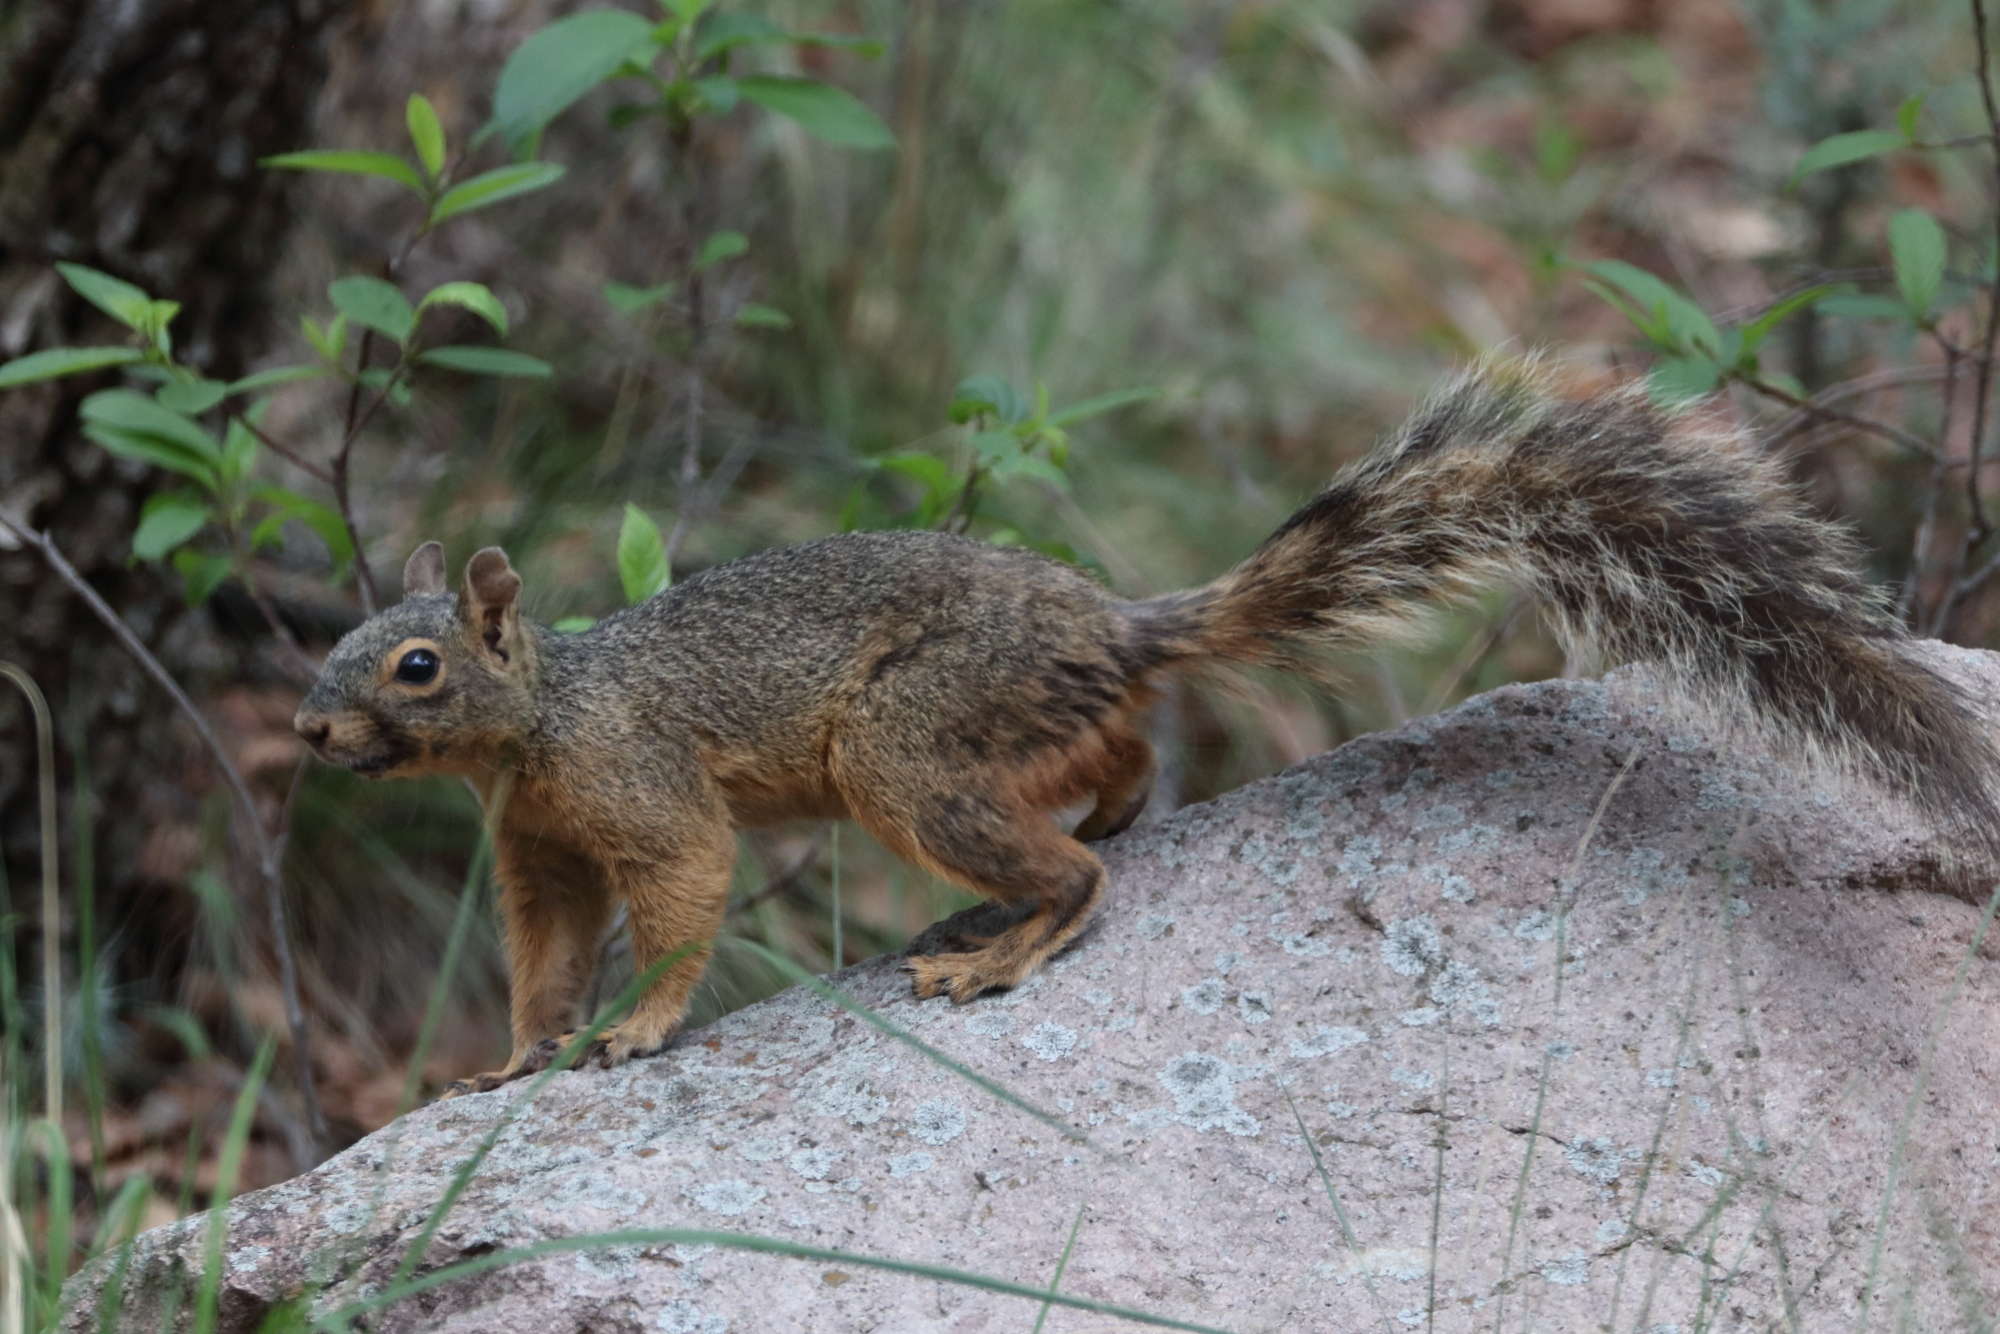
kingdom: Animalia
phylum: Chordata
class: Mammalia
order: Rodentia
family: Sciuridae
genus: Sciurus
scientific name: Sciurus nayaritensis
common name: Mexican fox squirrel
